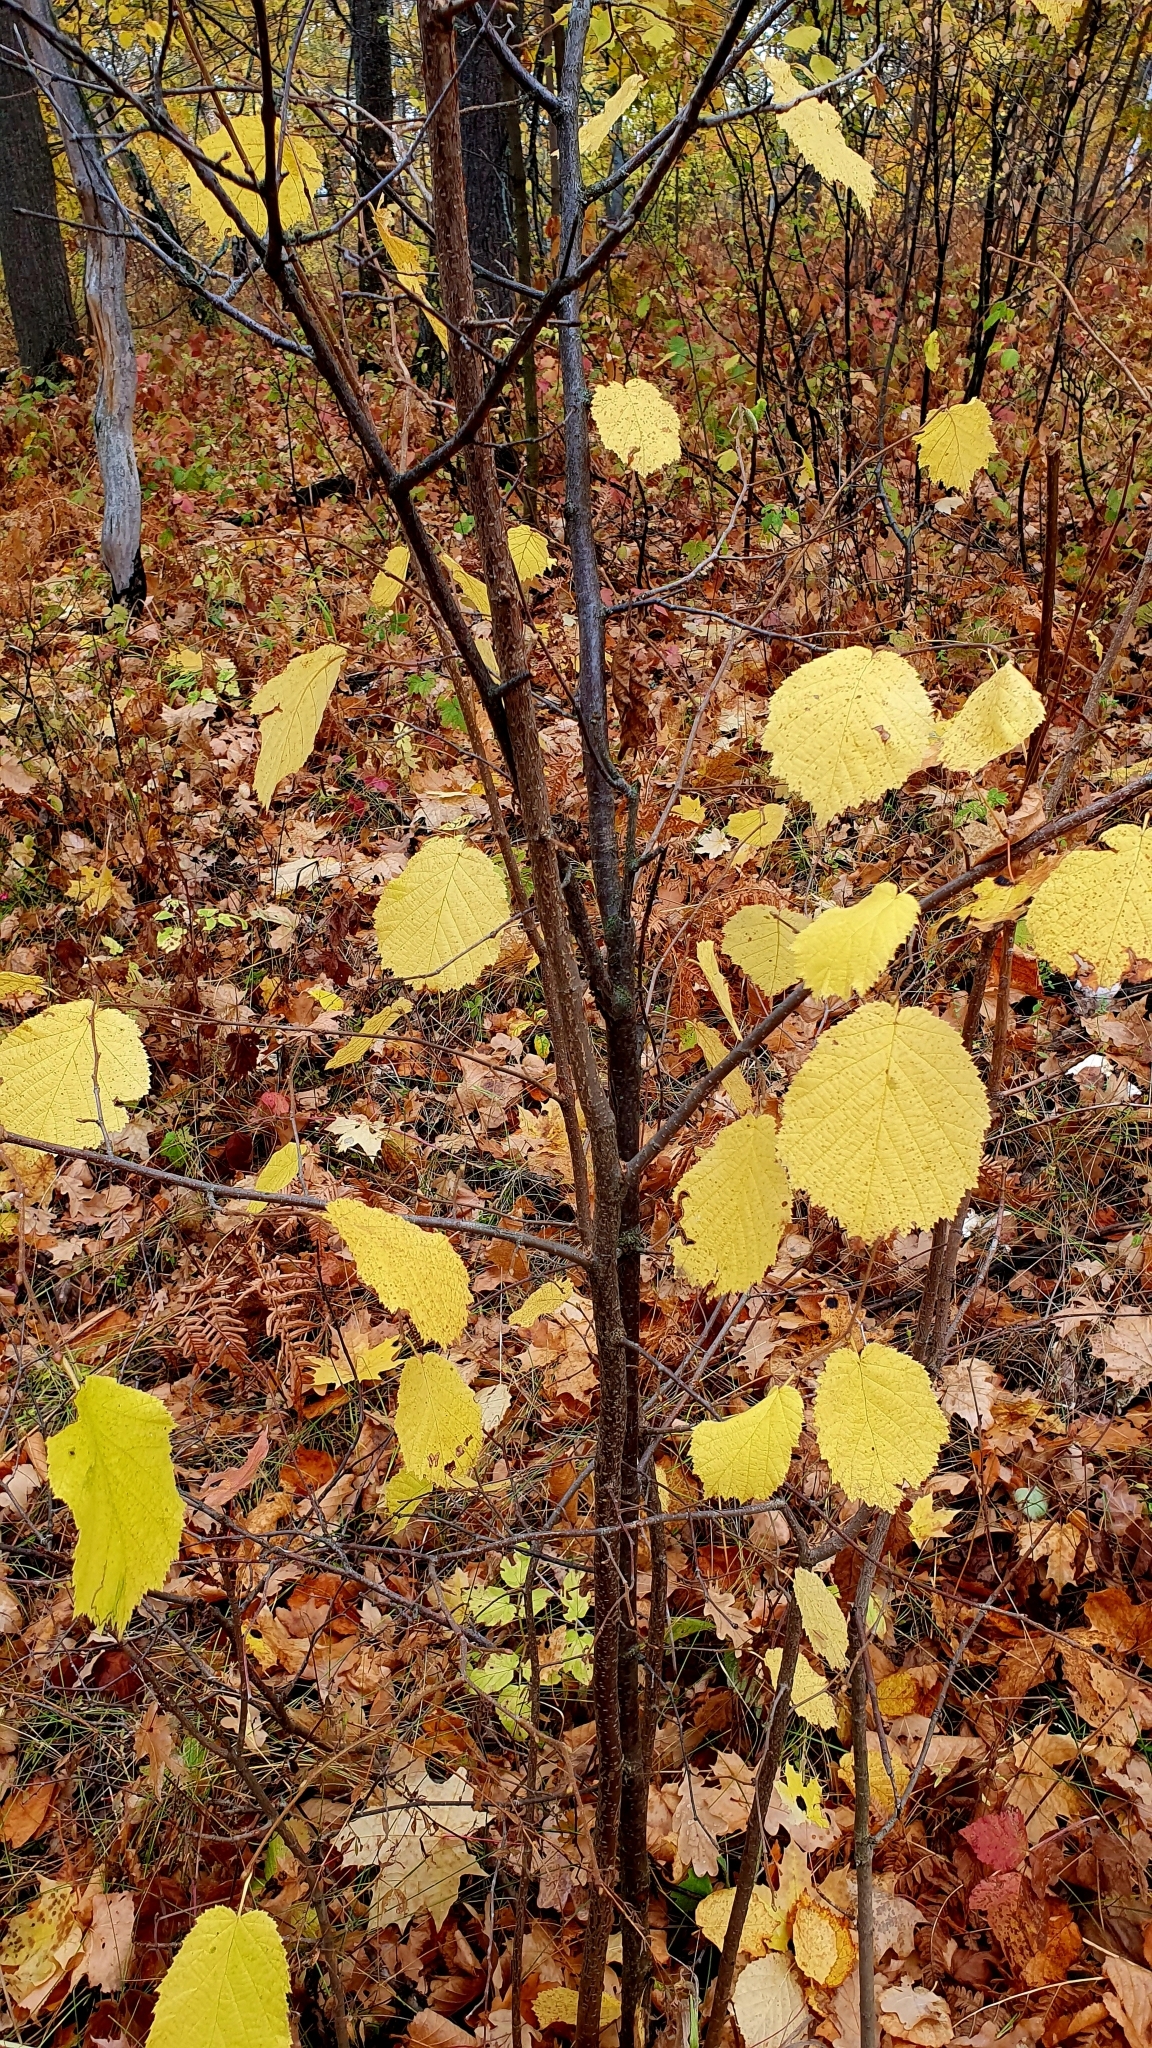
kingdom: Plantae
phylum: Tracheophyta
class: Magnoliopsida
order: Fagales
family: Betulaceae
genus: Corylus
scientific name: Corylus avellana
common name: European hazel
